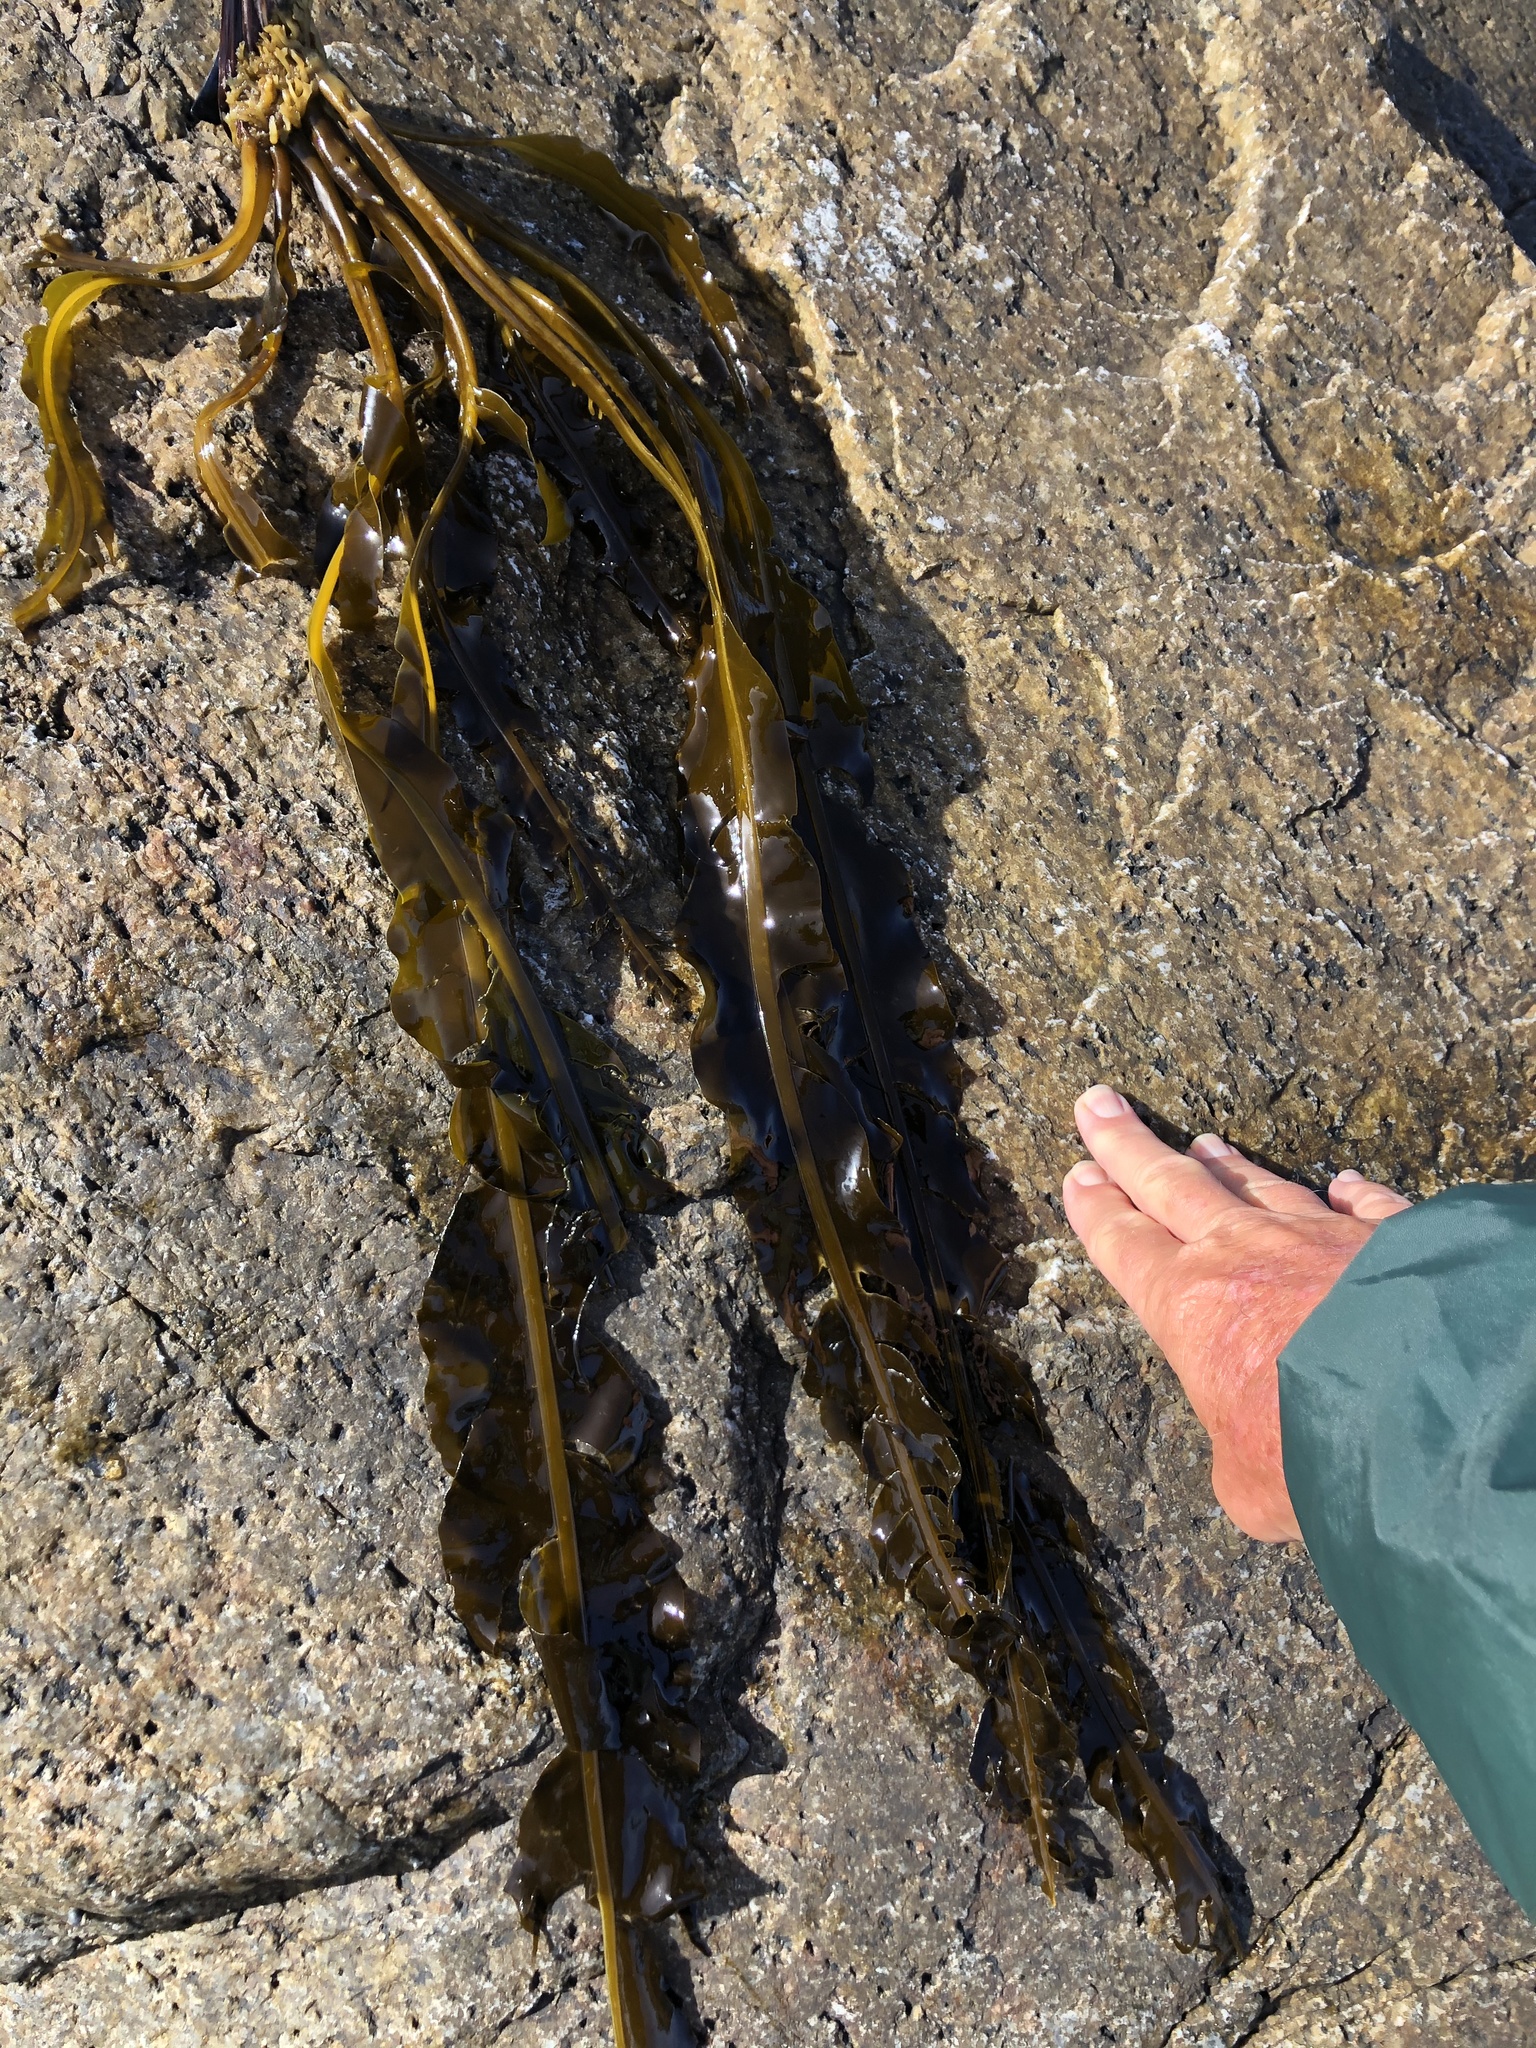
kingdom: Chromista
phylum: Ochrophyta
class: Phaeophyceae
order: Laminariales
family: Alariaceae
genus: Alaria
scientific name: Alaria marginata
